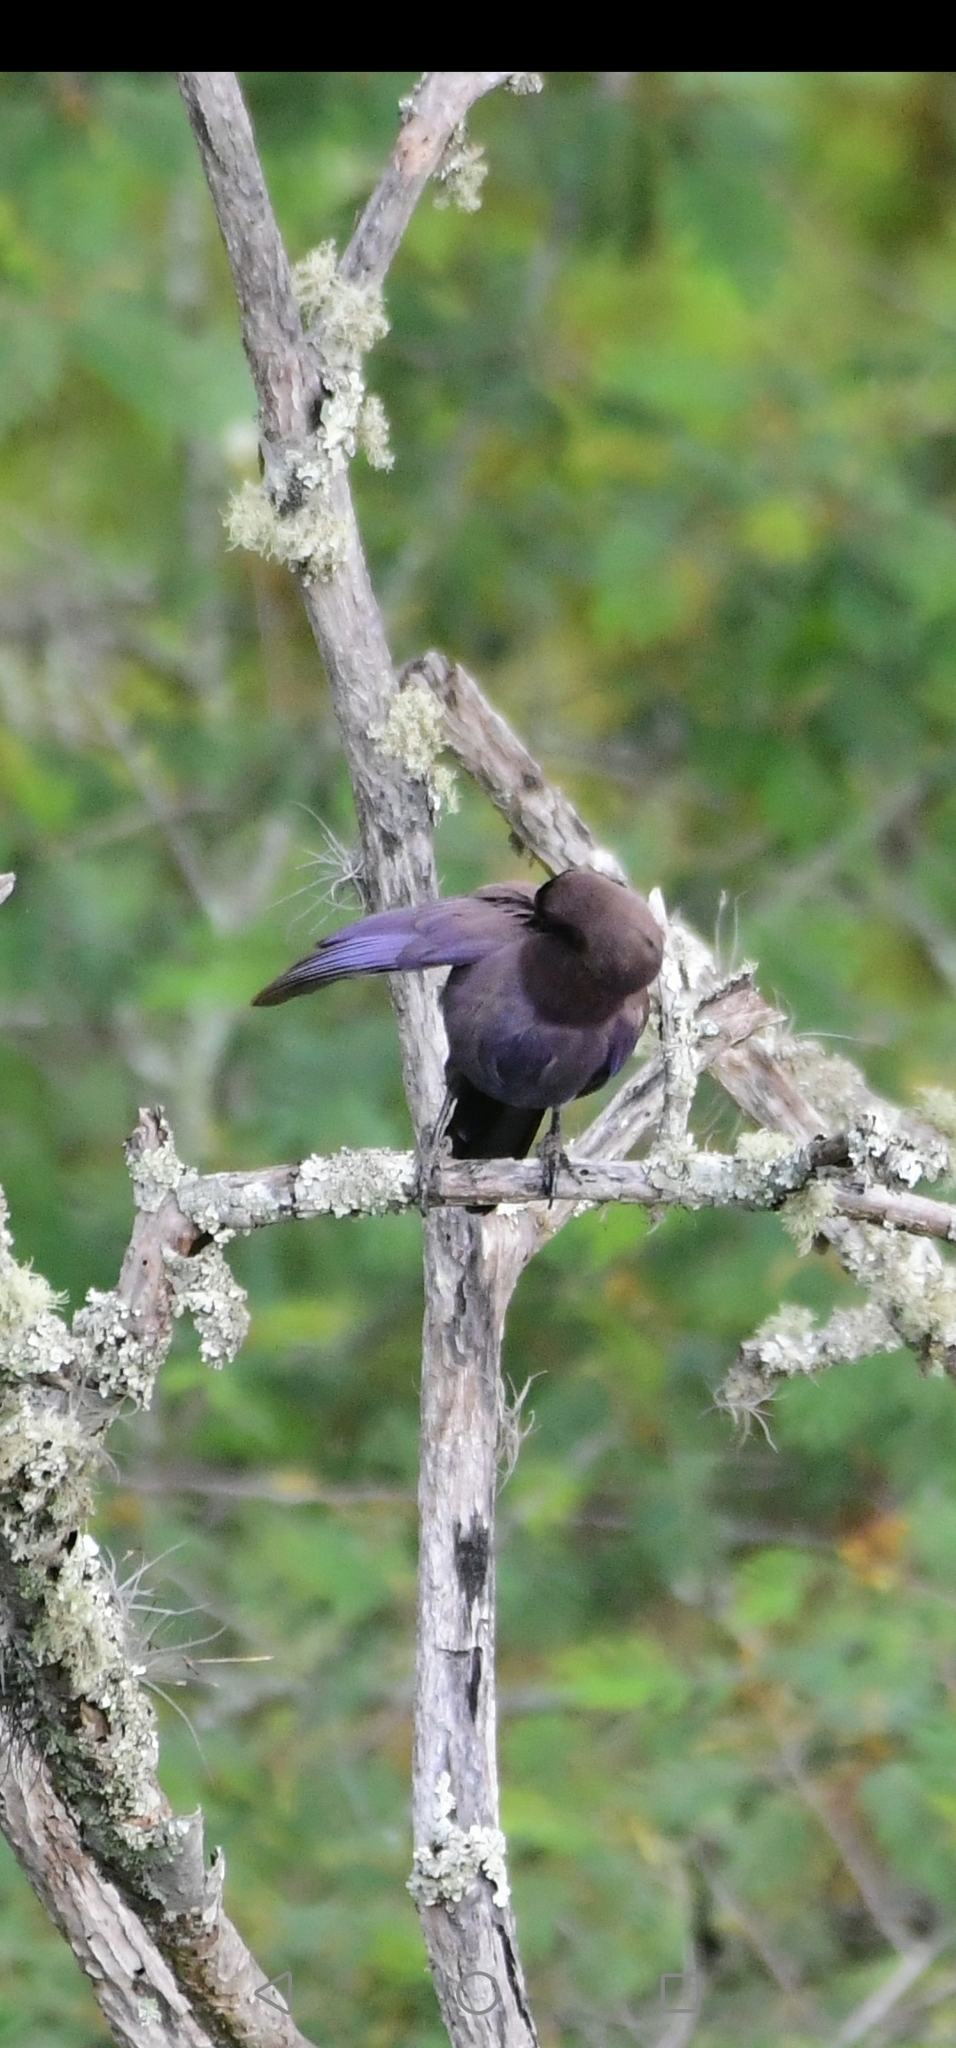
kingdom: Animalia
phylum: Chordata
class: Aves
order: Passeriformes
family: Corvidae
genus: Cyanocorax
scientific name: Cyanocorax cyanomelas
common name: Purplish jay
